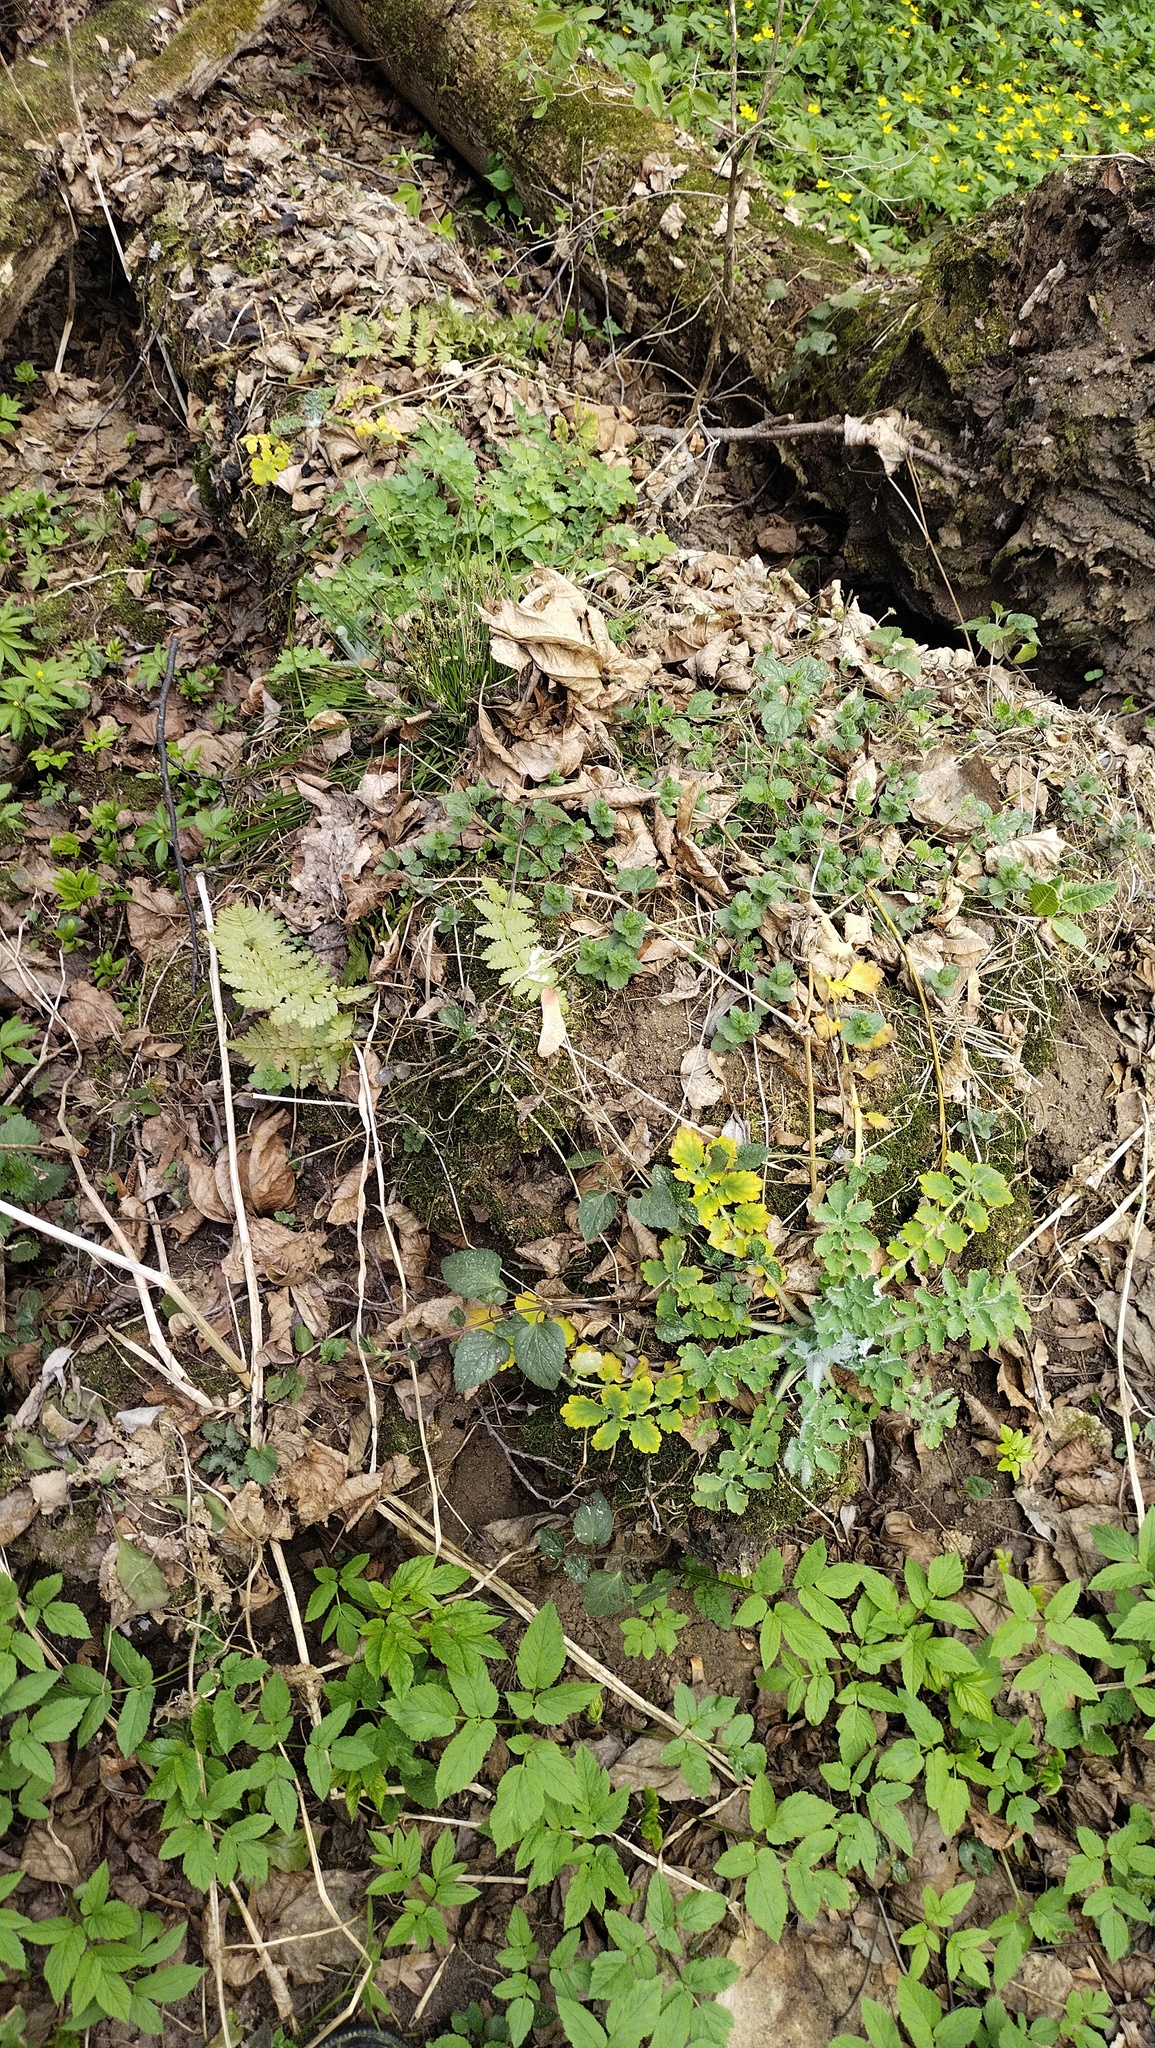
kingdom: Plantae
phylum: Tracheophyta
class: Magnoliopsida
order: Ranunculales
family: Papaveraceae
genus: Chelidonium
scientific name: Chelidonium majus
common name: Greater celandine
